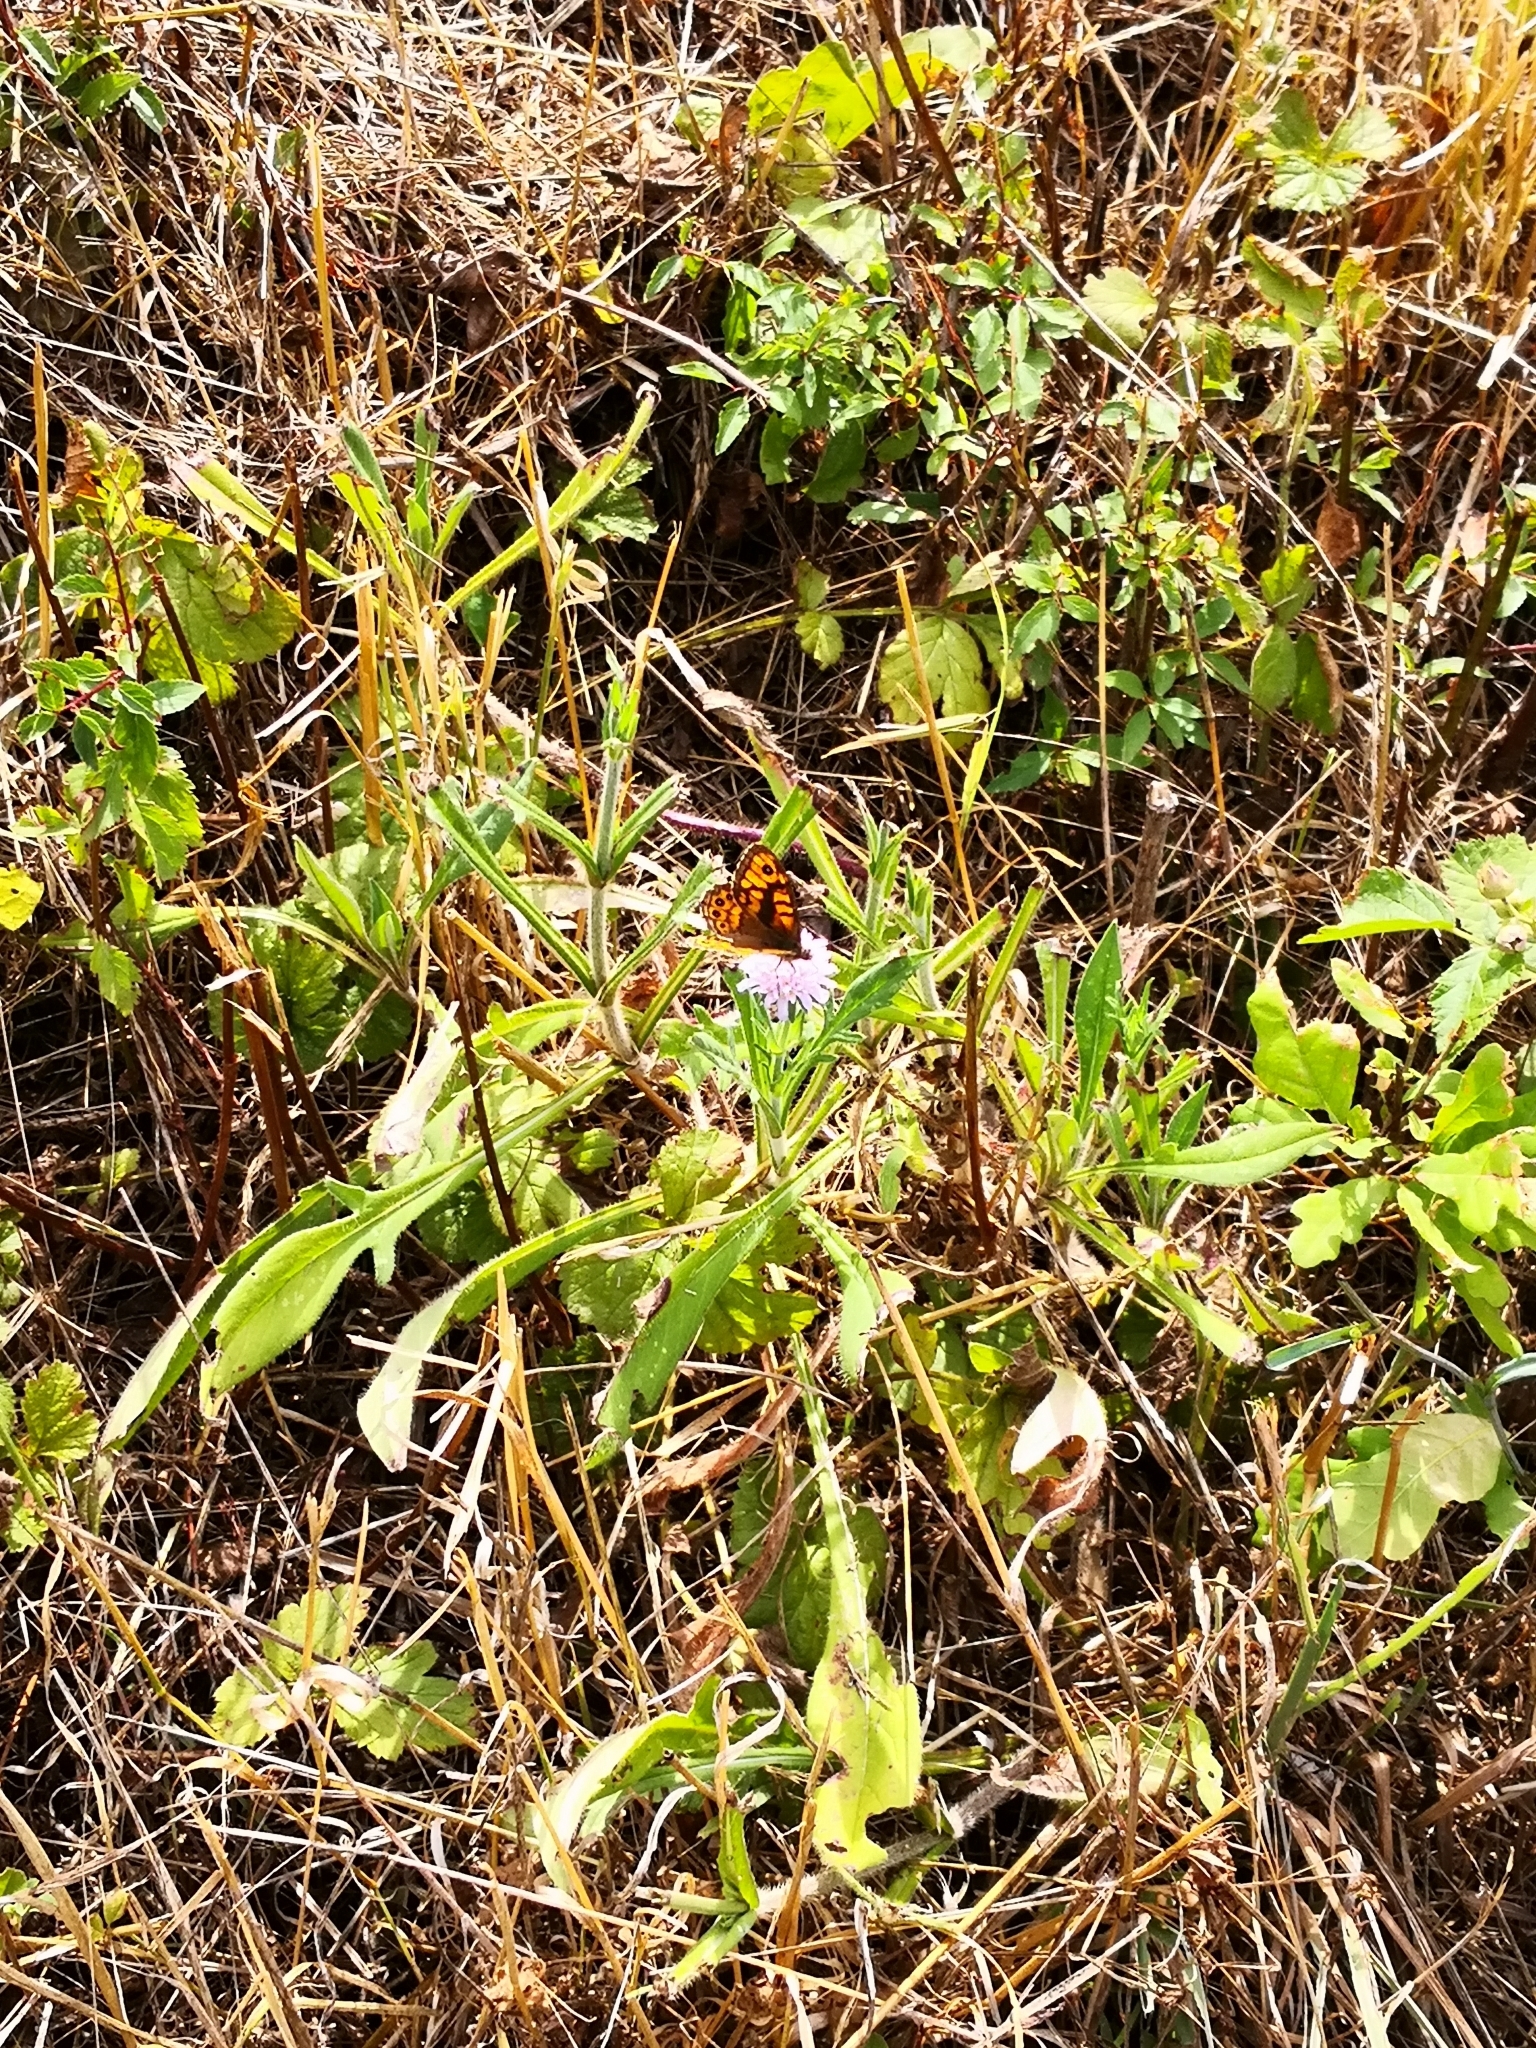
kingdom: Animalia
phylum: Arthropoda
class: Insecta
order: Lepidoptera
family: Nymphalidae
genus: Pararge
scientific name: Pararge Lasiommata megera
